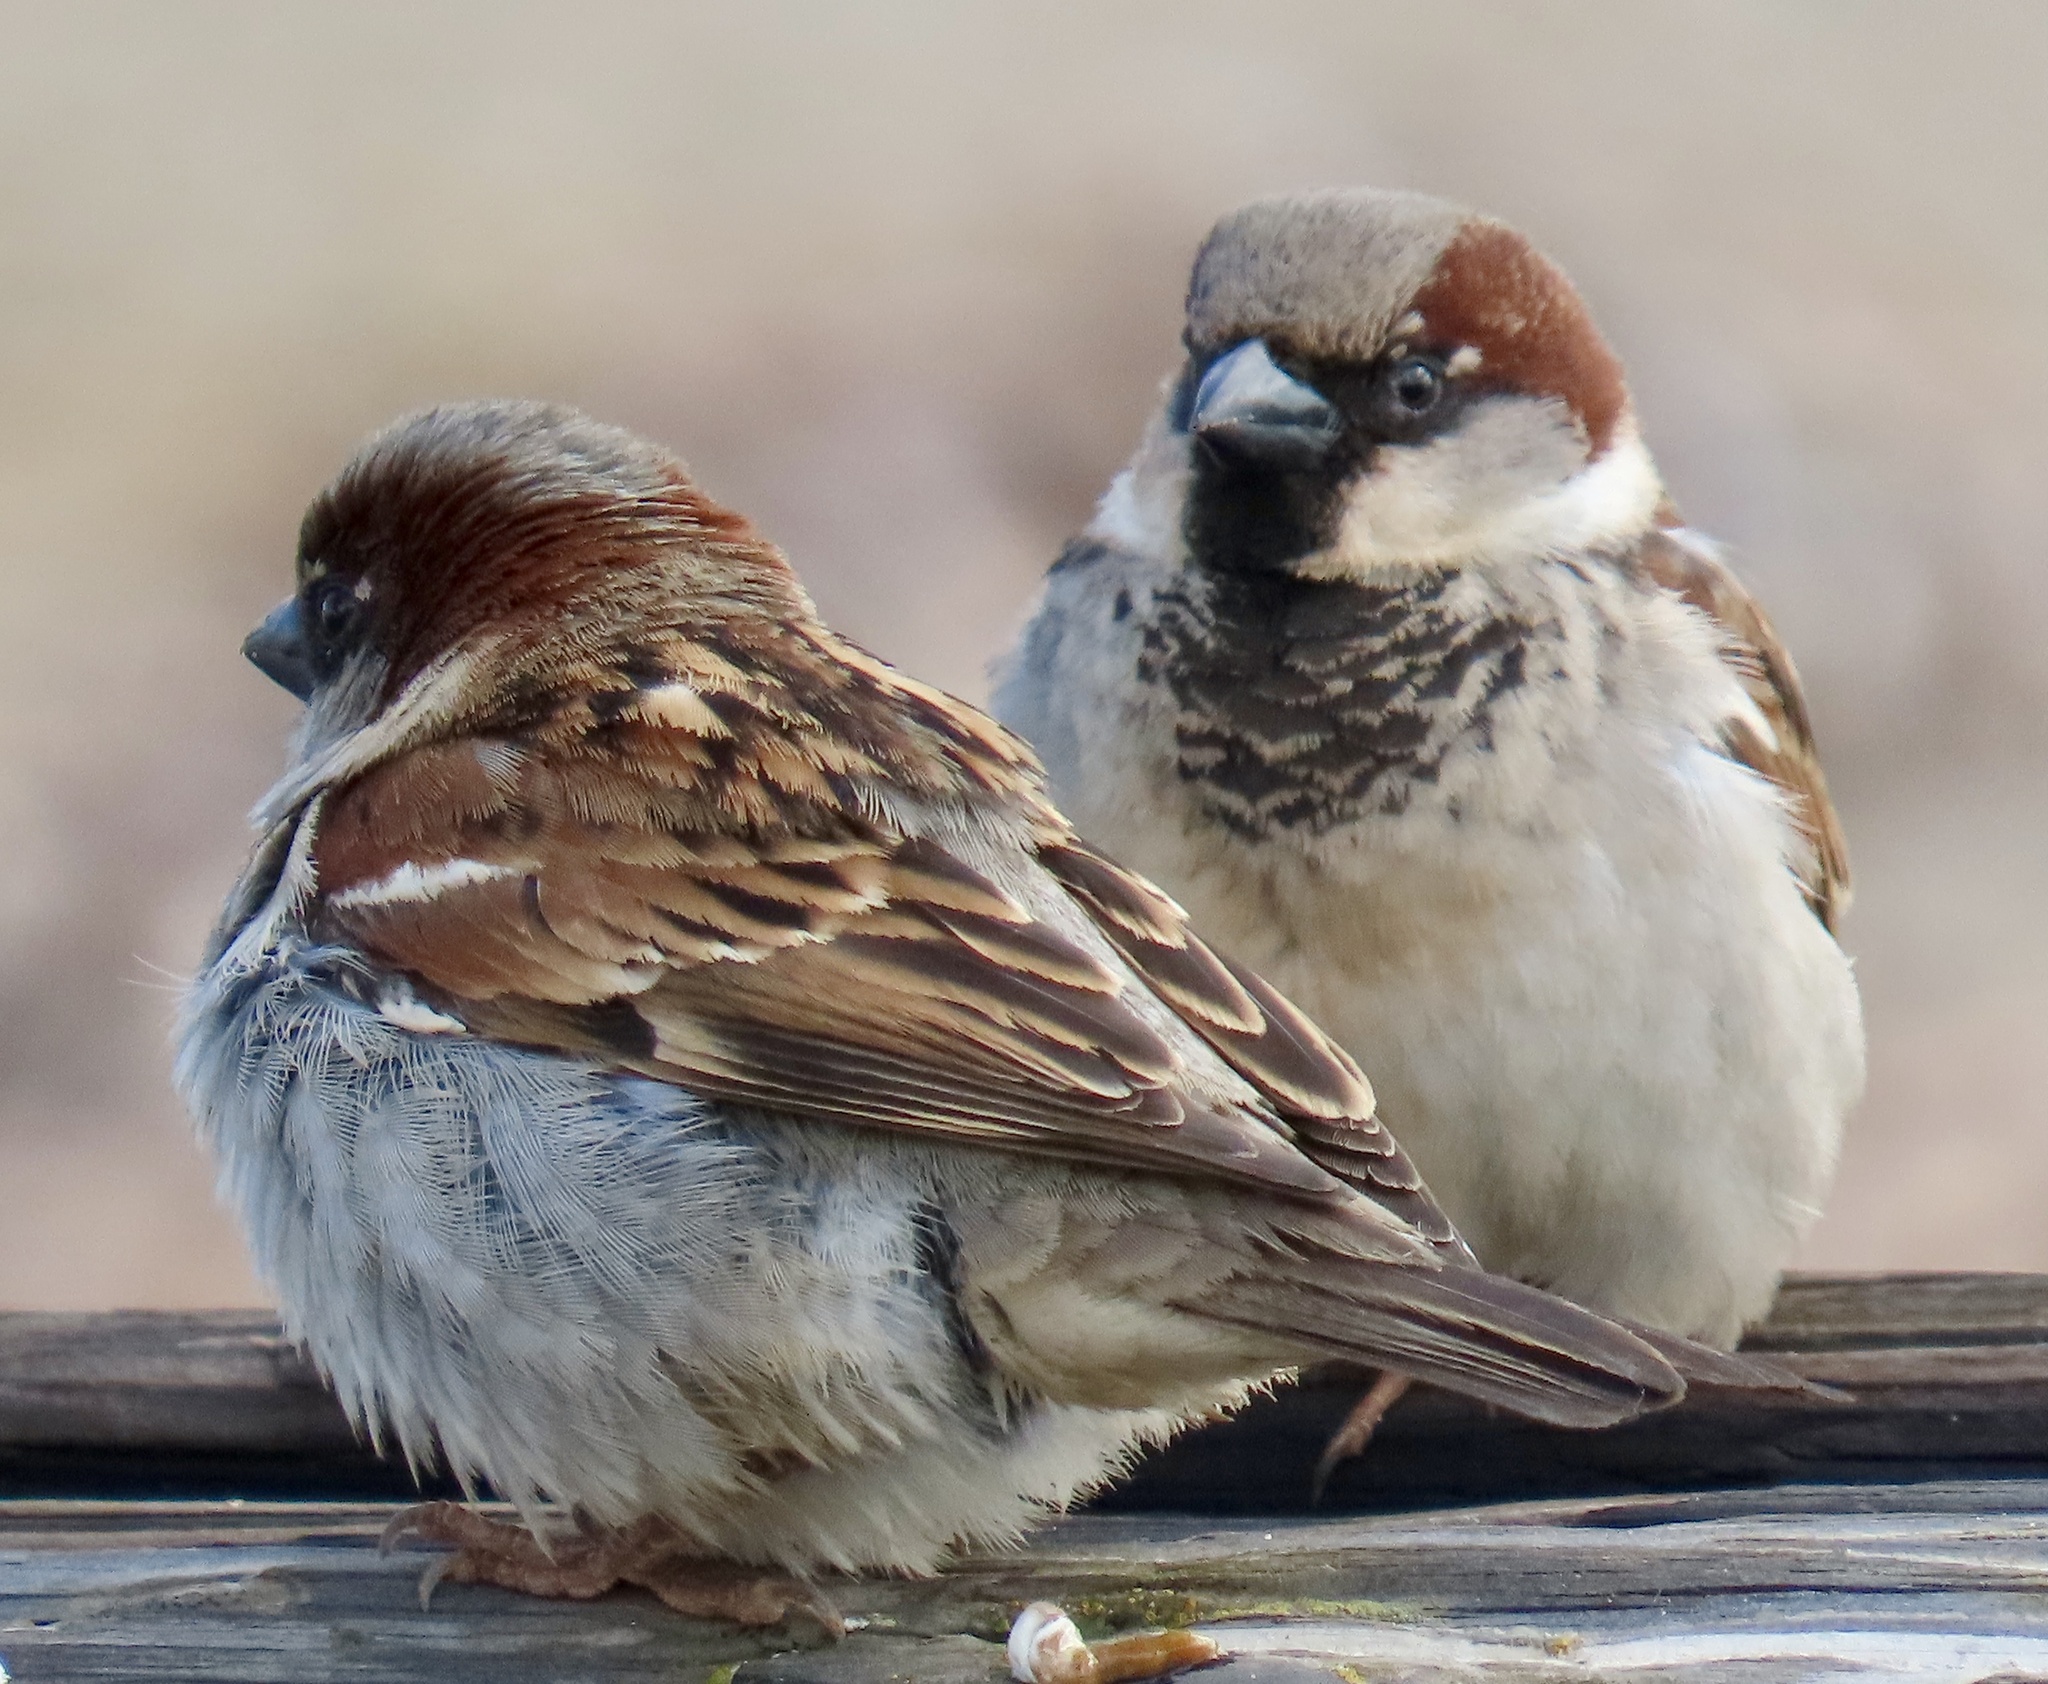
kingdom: Animalia
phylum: Chordata
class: Aves
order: Passeriformes
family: Passeridae
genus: Passer
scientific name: Passer domesticus
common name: House sparrow
